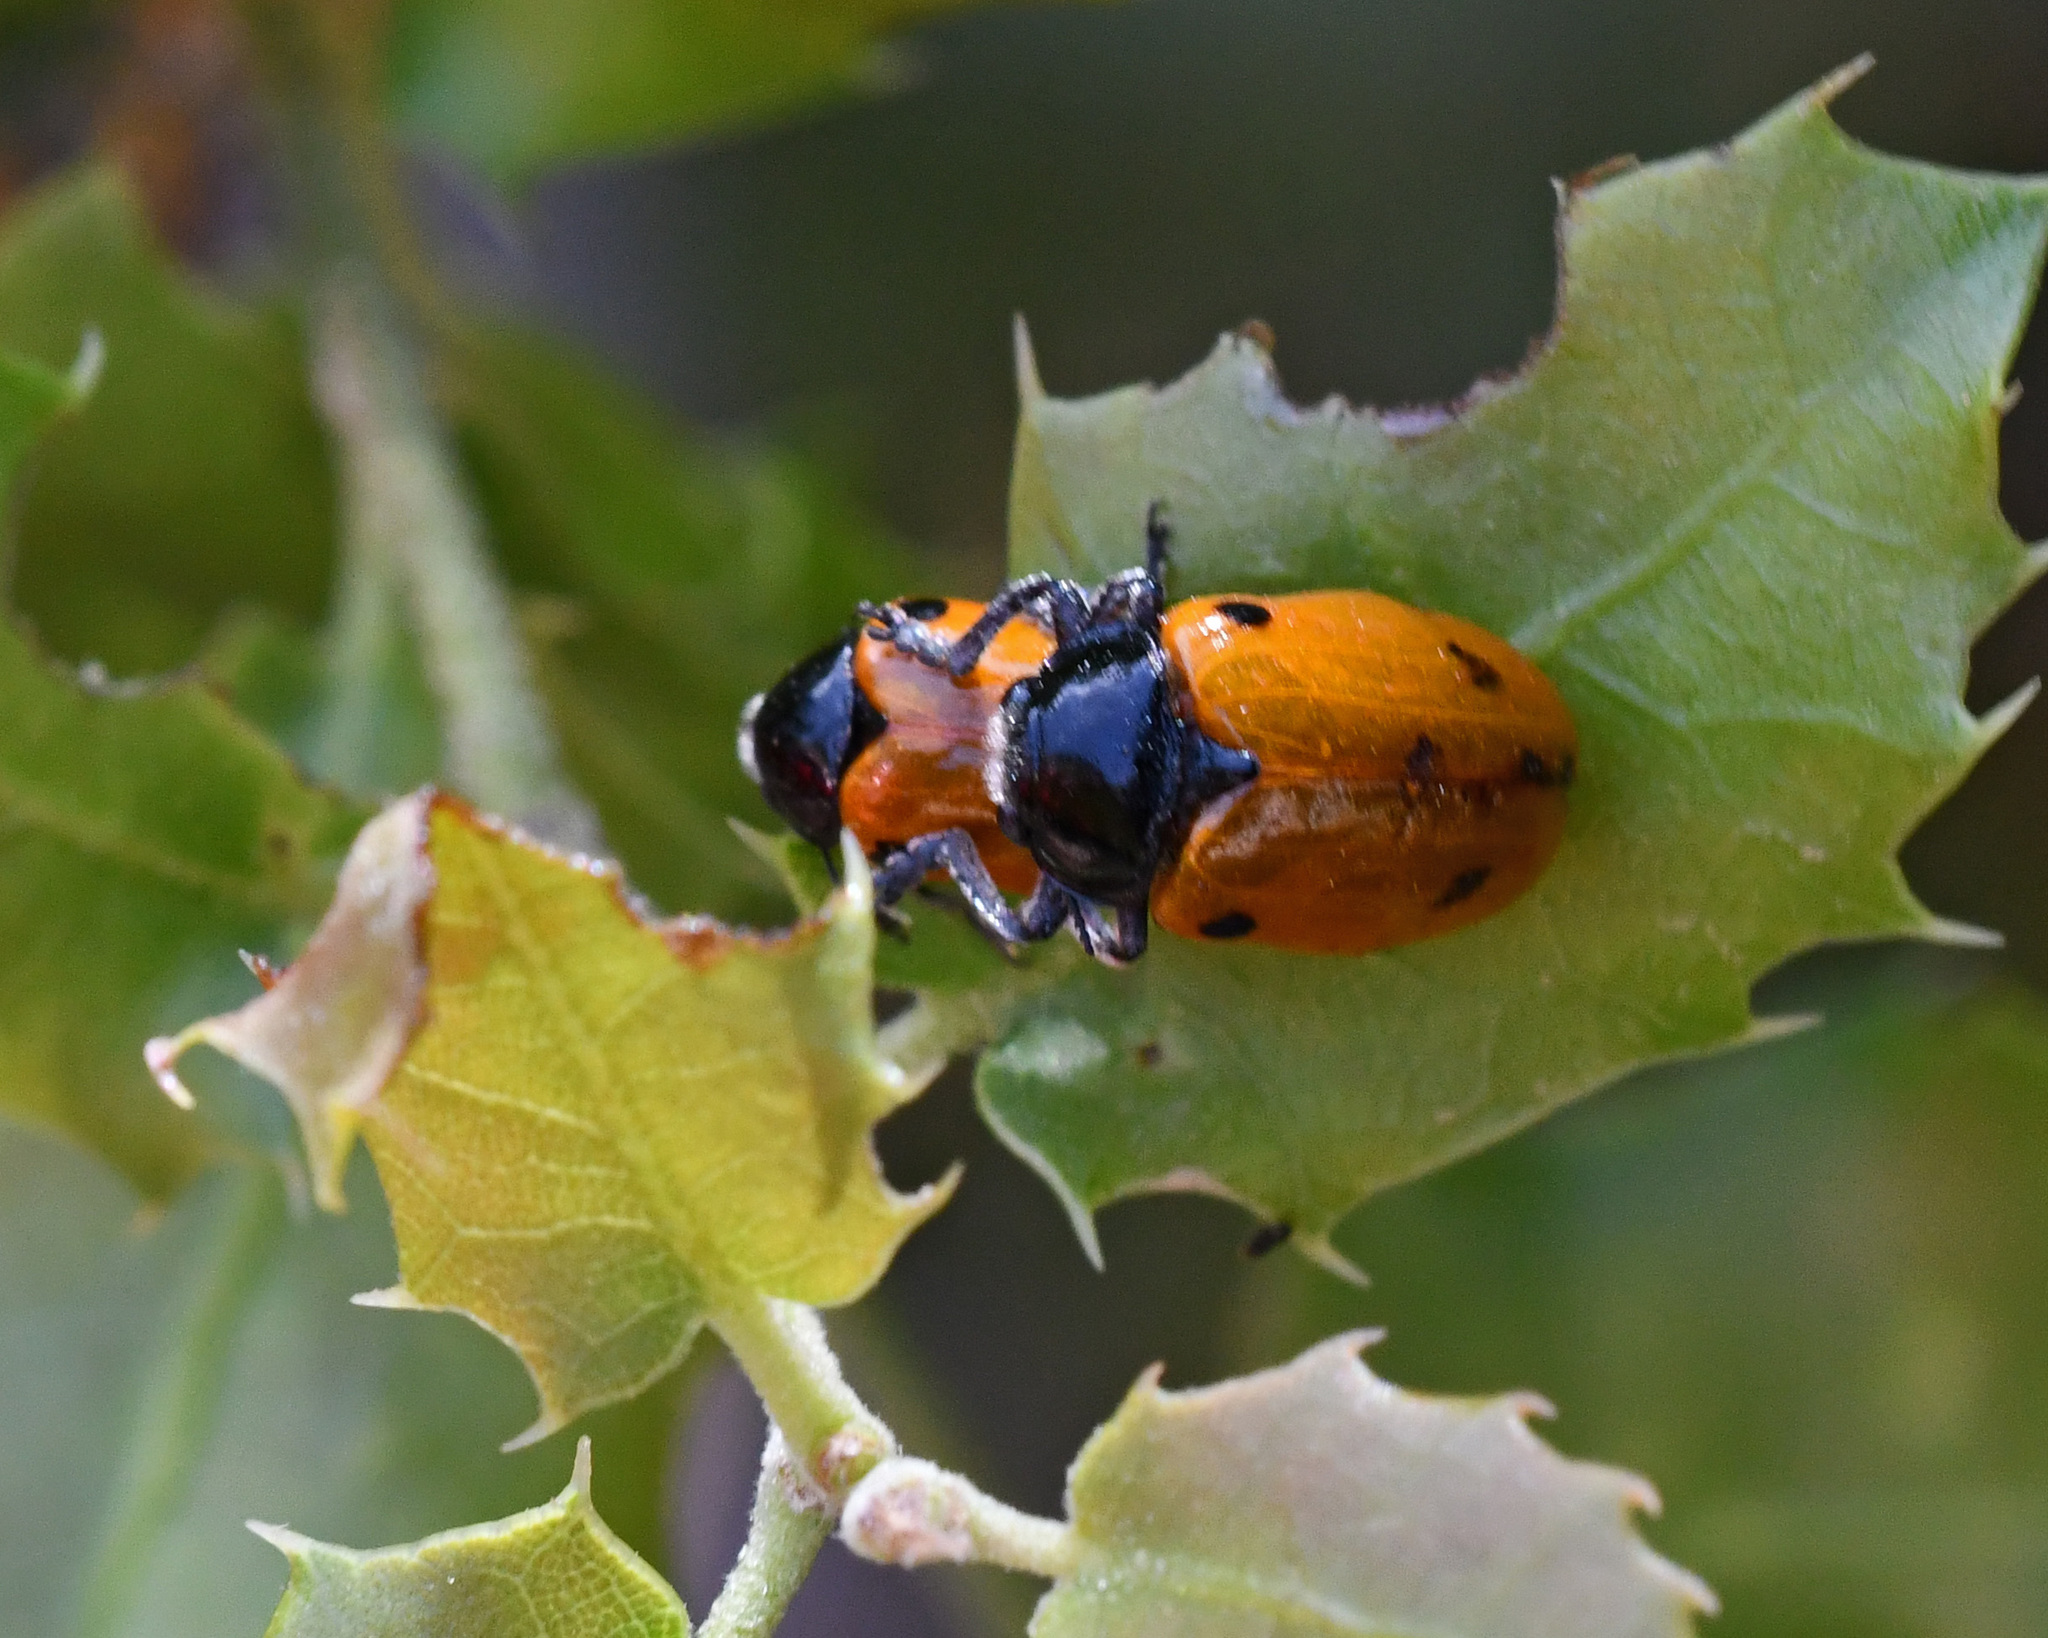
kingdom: Animalia
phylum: Arthropoda
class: Insecta
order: Coleoptera
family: Chrysomelidae
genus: Clytra
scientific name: Clytra deficiens
